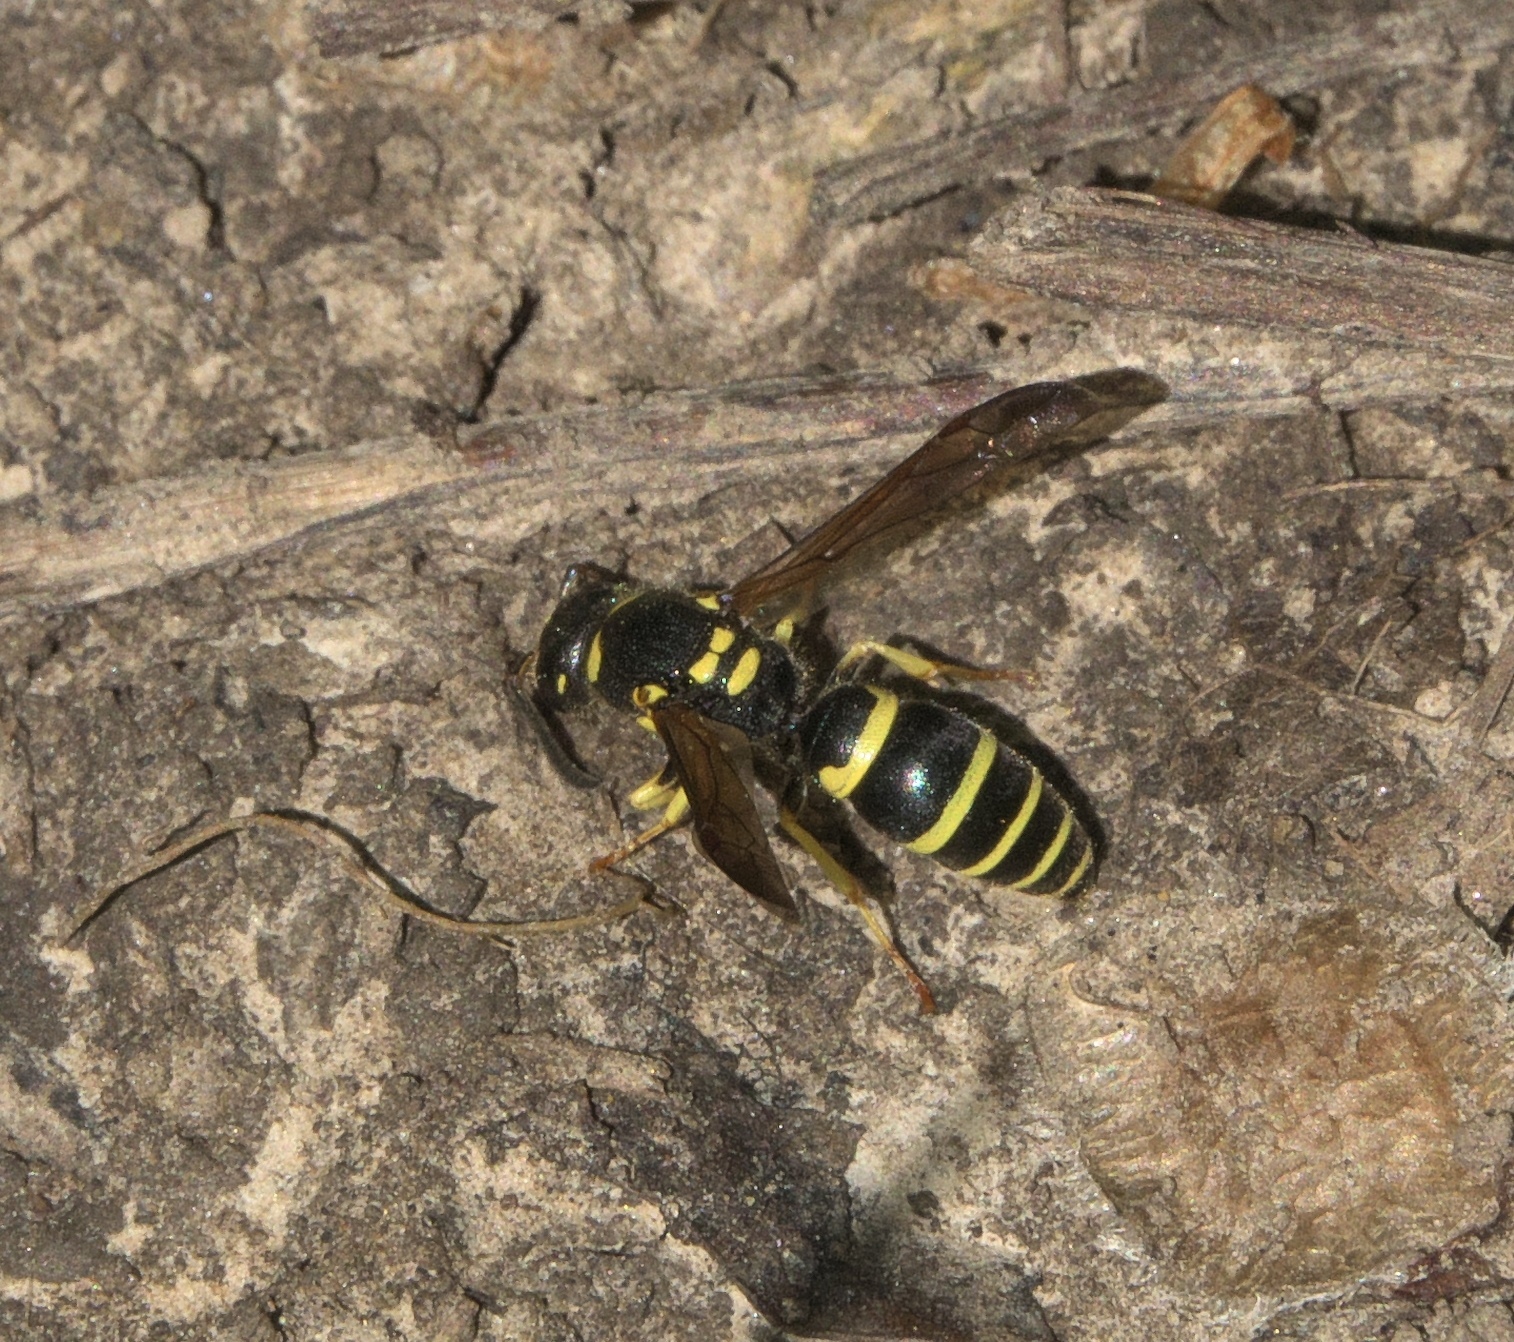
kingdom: Animalia
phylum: Arthropoda
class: Insecta
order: Hymenoptera
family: Vespidae
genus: Ancistrocerus
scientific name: Ancistrocerus adiabatus
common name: Bramble mason wasp
